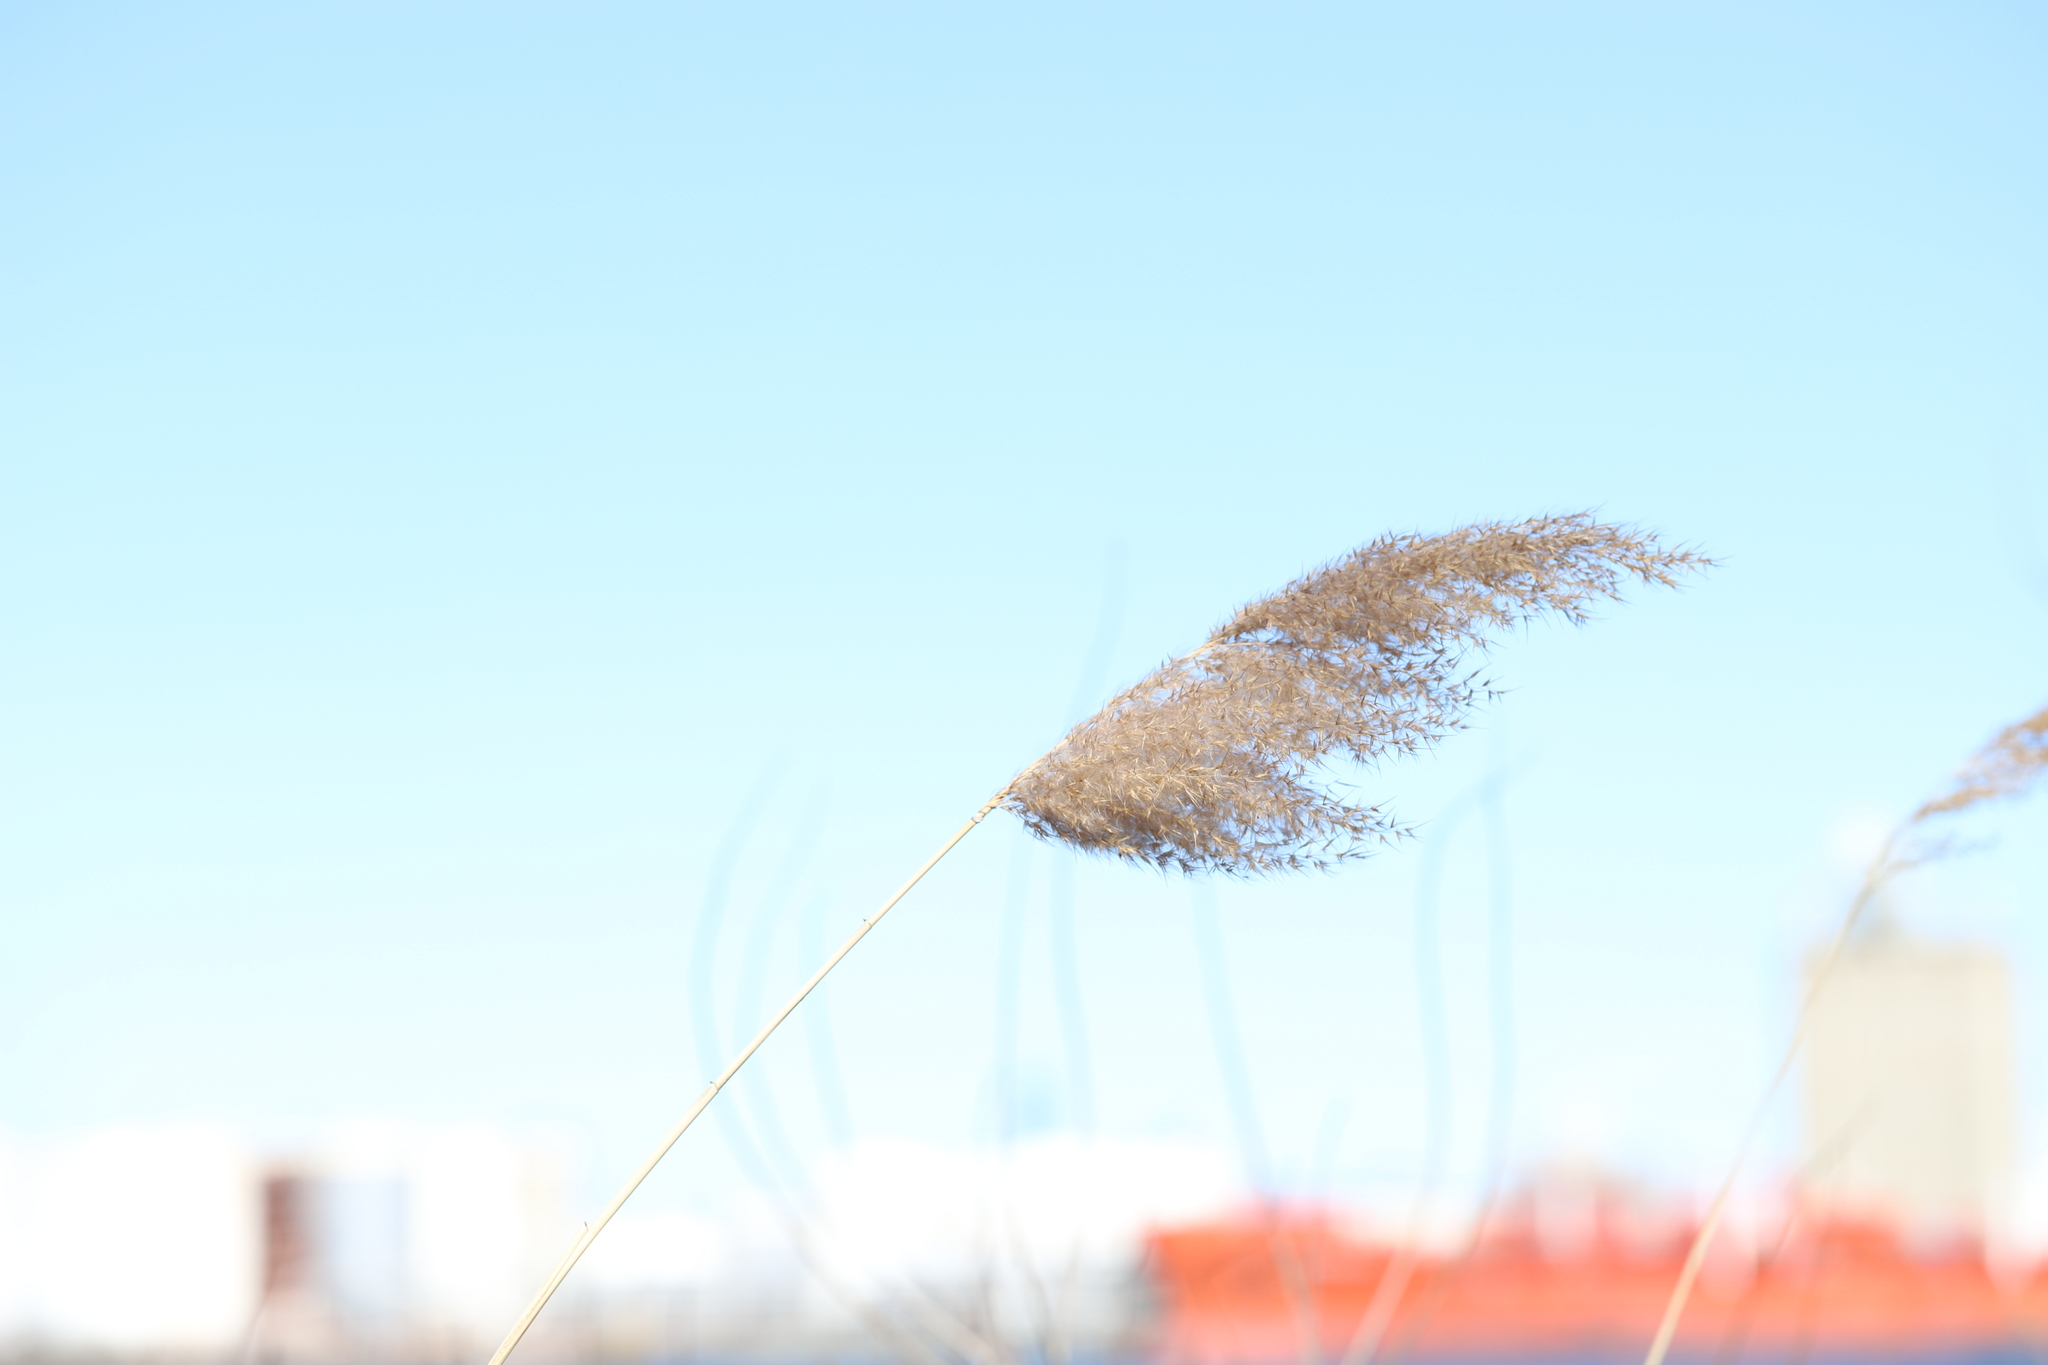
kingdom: Plantae
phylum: Tracheophyta
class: Liliopsida
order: Poales
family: Poaceae
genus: Phragmites
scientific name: Phragmites australis
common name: Common reed
